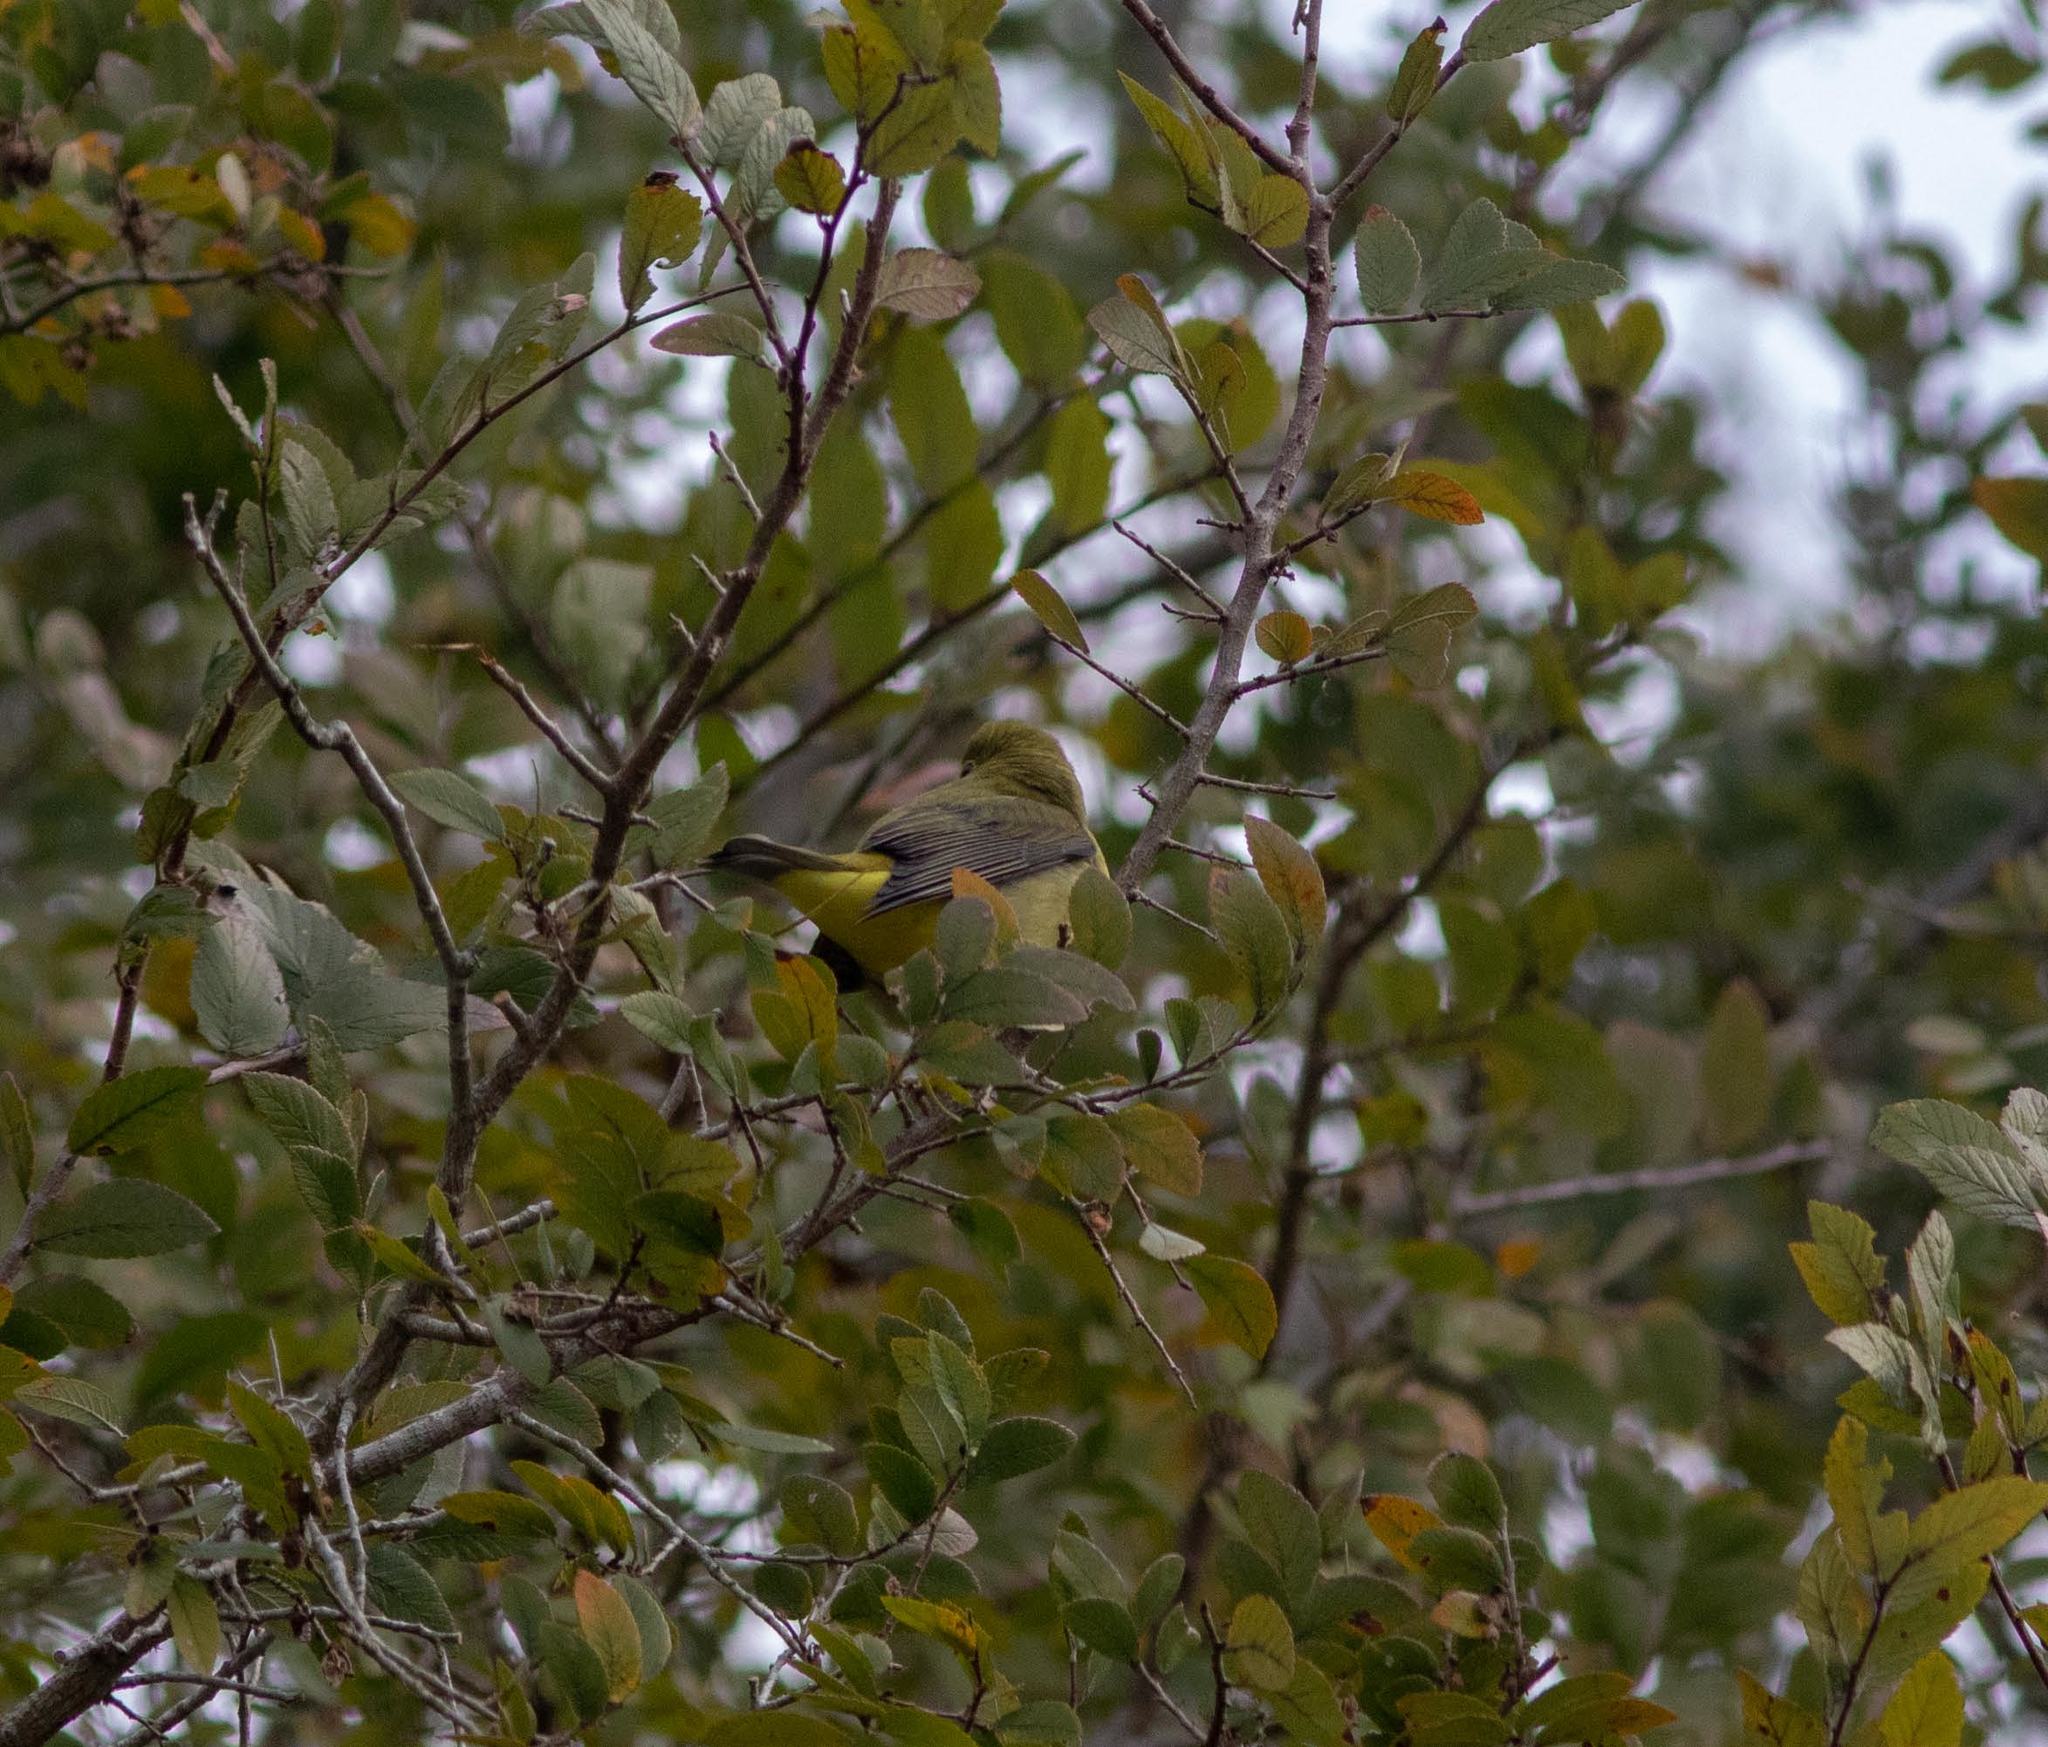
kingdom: Animalia
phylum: Chordata
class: Aves
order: Passeriformes
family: Cardinalidae
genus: Piranga
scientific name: Piranga olivacea
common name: Scarlet tanager
